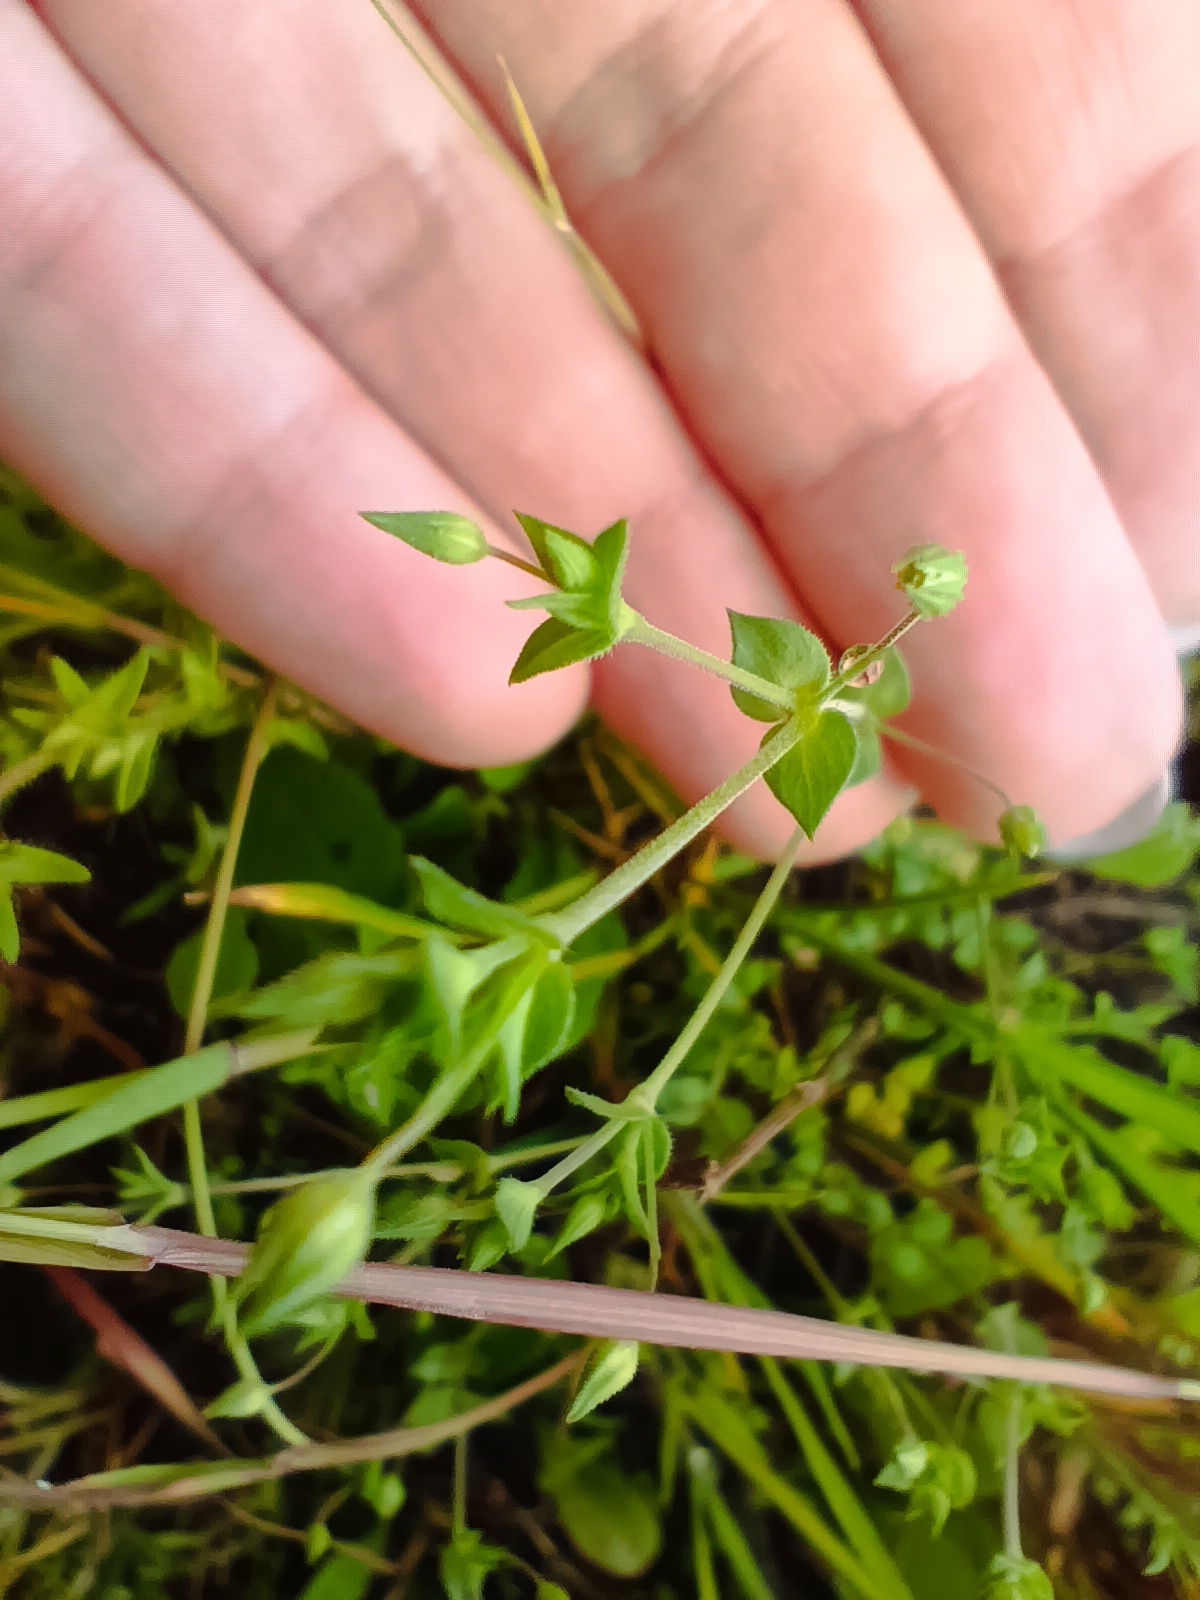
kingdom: Plantae
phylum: Tracheophyta
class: Magnoliopsida
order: Caryophyllales
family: Caryophyllaceae
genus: Arenaria
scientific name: Arenaria serpyllifolia
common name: Thyme-leaved sandwort
